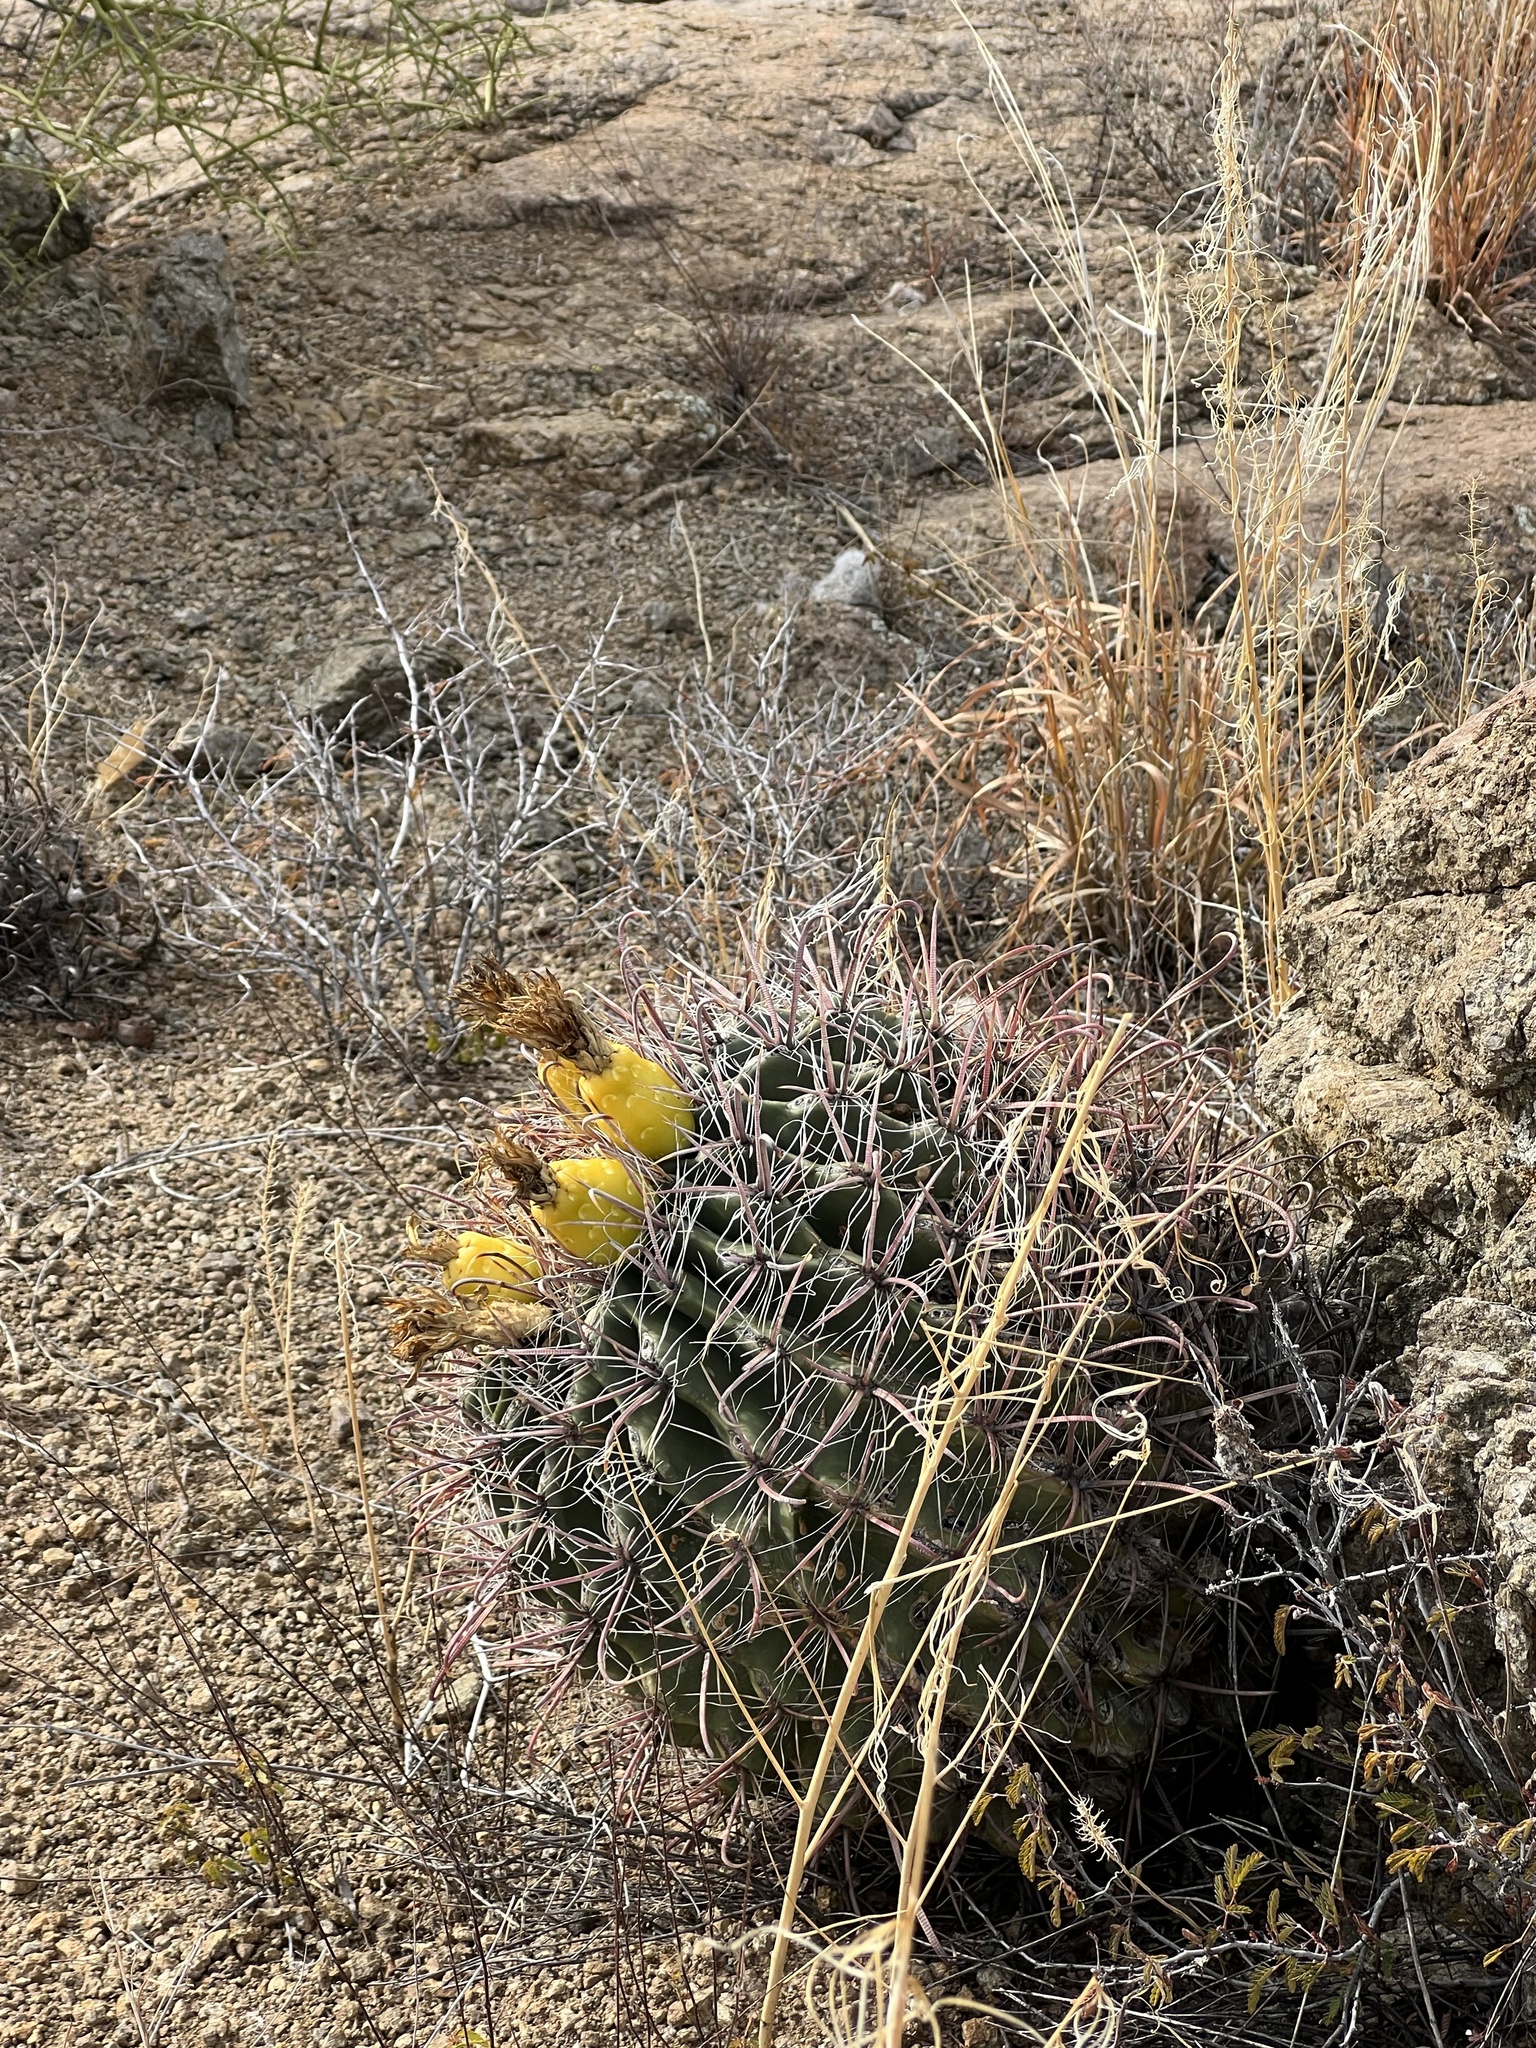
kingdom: Plantae
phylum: Tracheophyta
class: Magnoliopsida
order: Caryophyllales
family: Cactaceae
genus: Ferocactus
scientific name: Ferocactus wislizeni
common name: Candy barrel cactus
